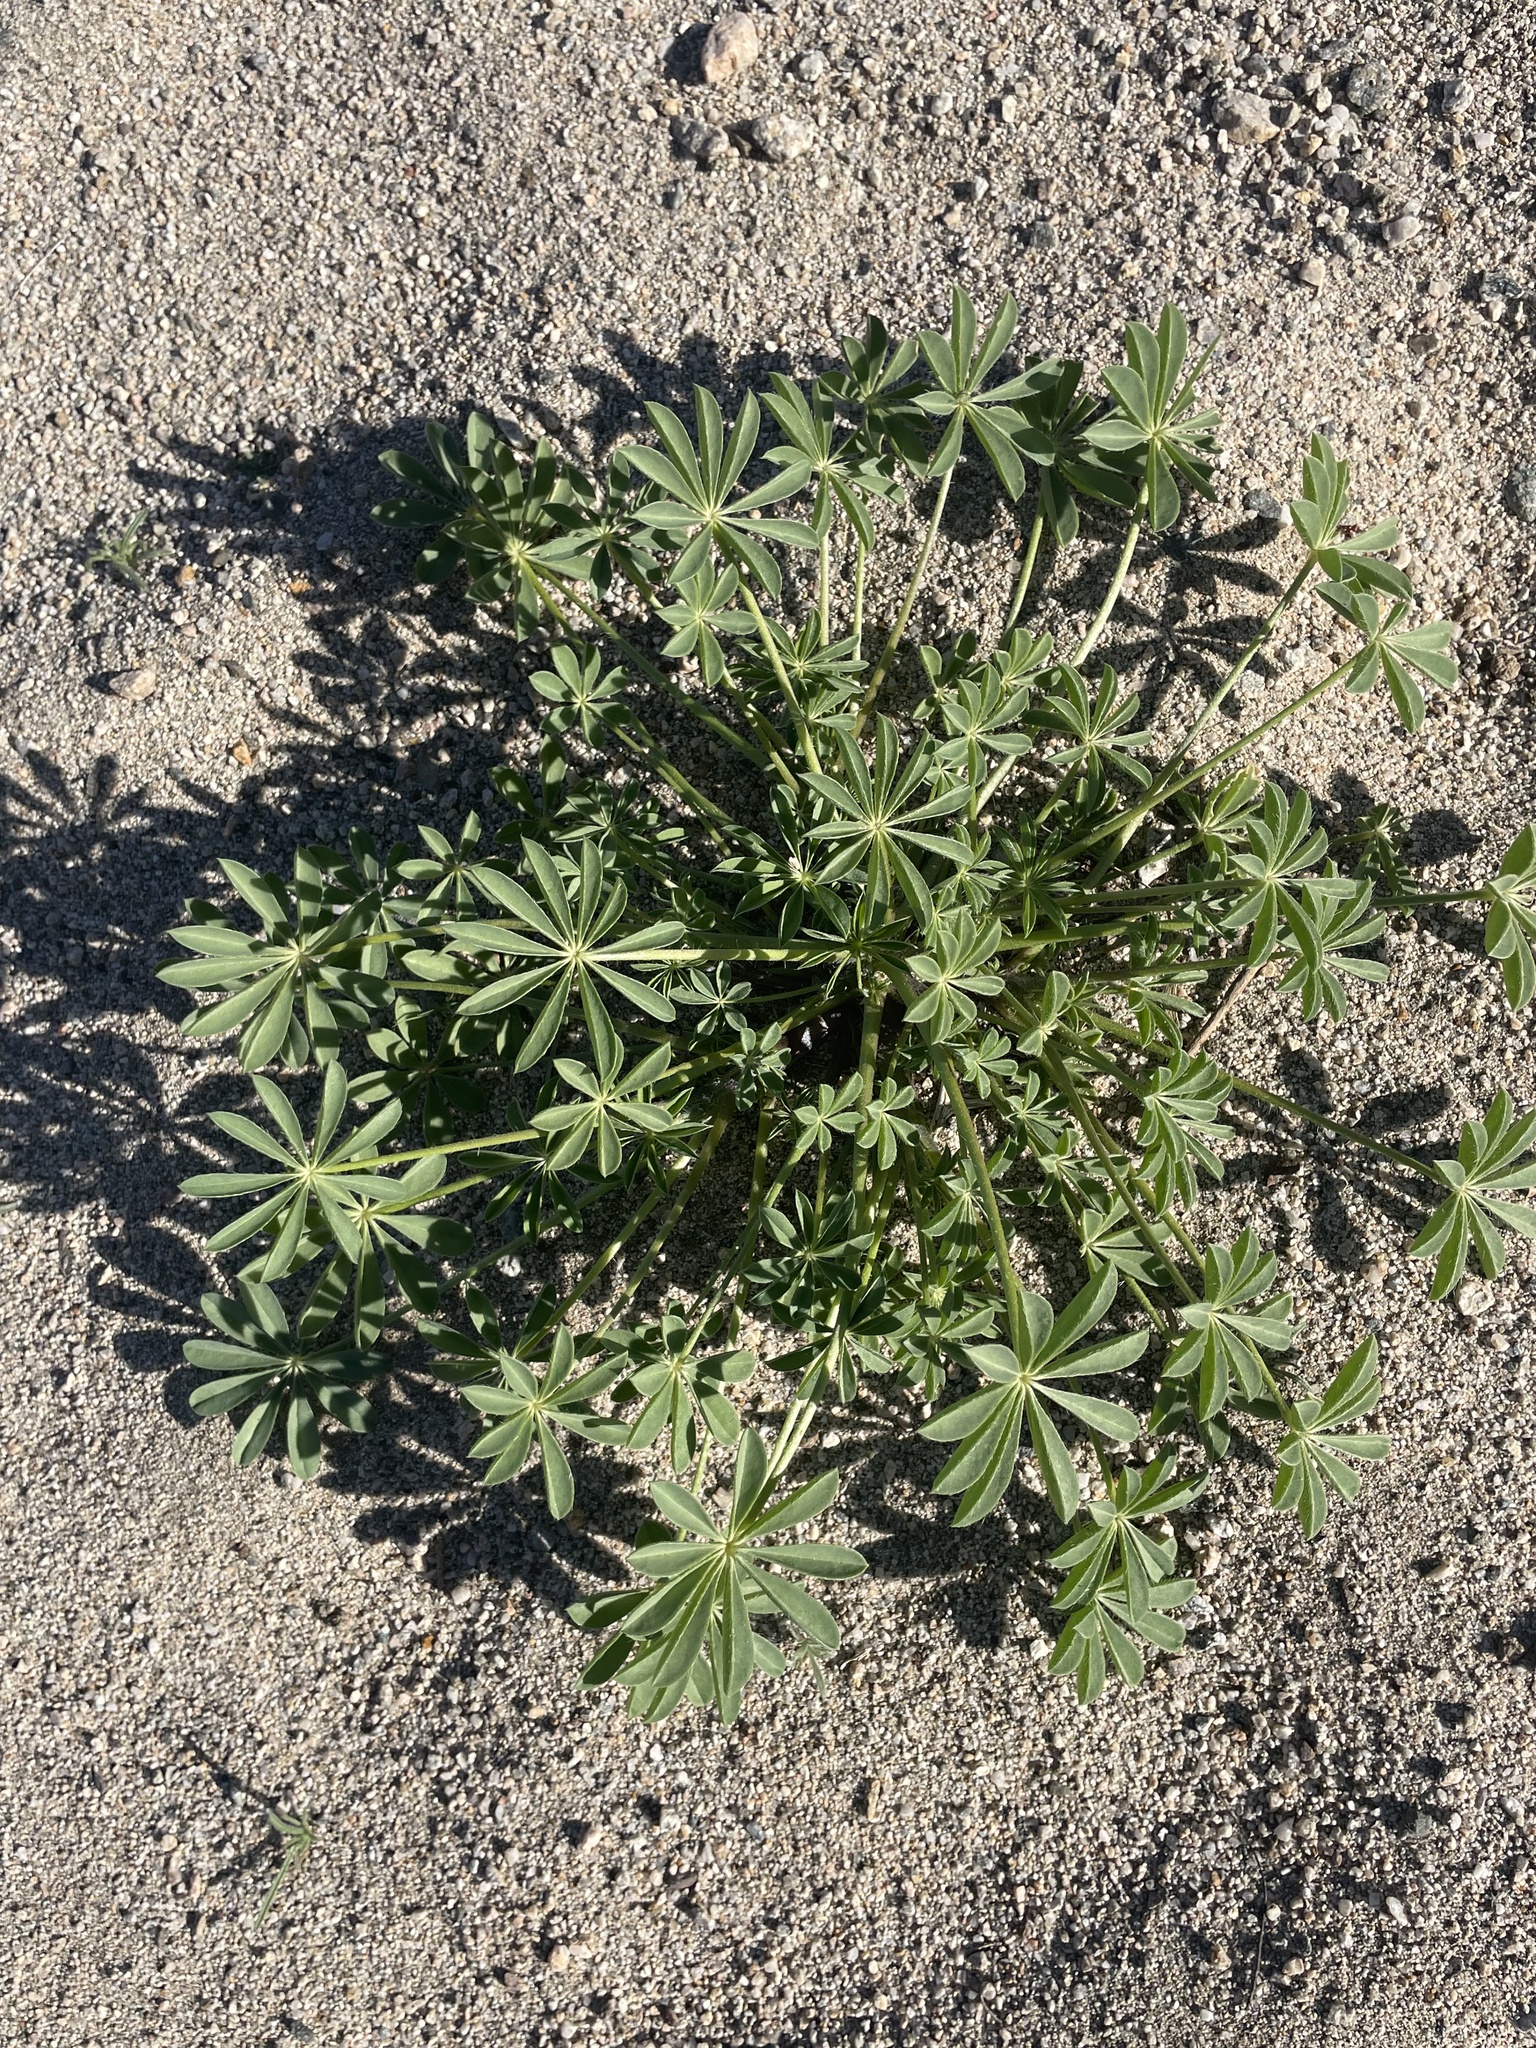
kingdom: Plantae
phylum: Tracheophyta
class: Magnoliopsida
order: Fabales
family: Fabaceae
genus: Lupinus
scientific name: Lupinus arizonicus
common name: Arizona lupine
